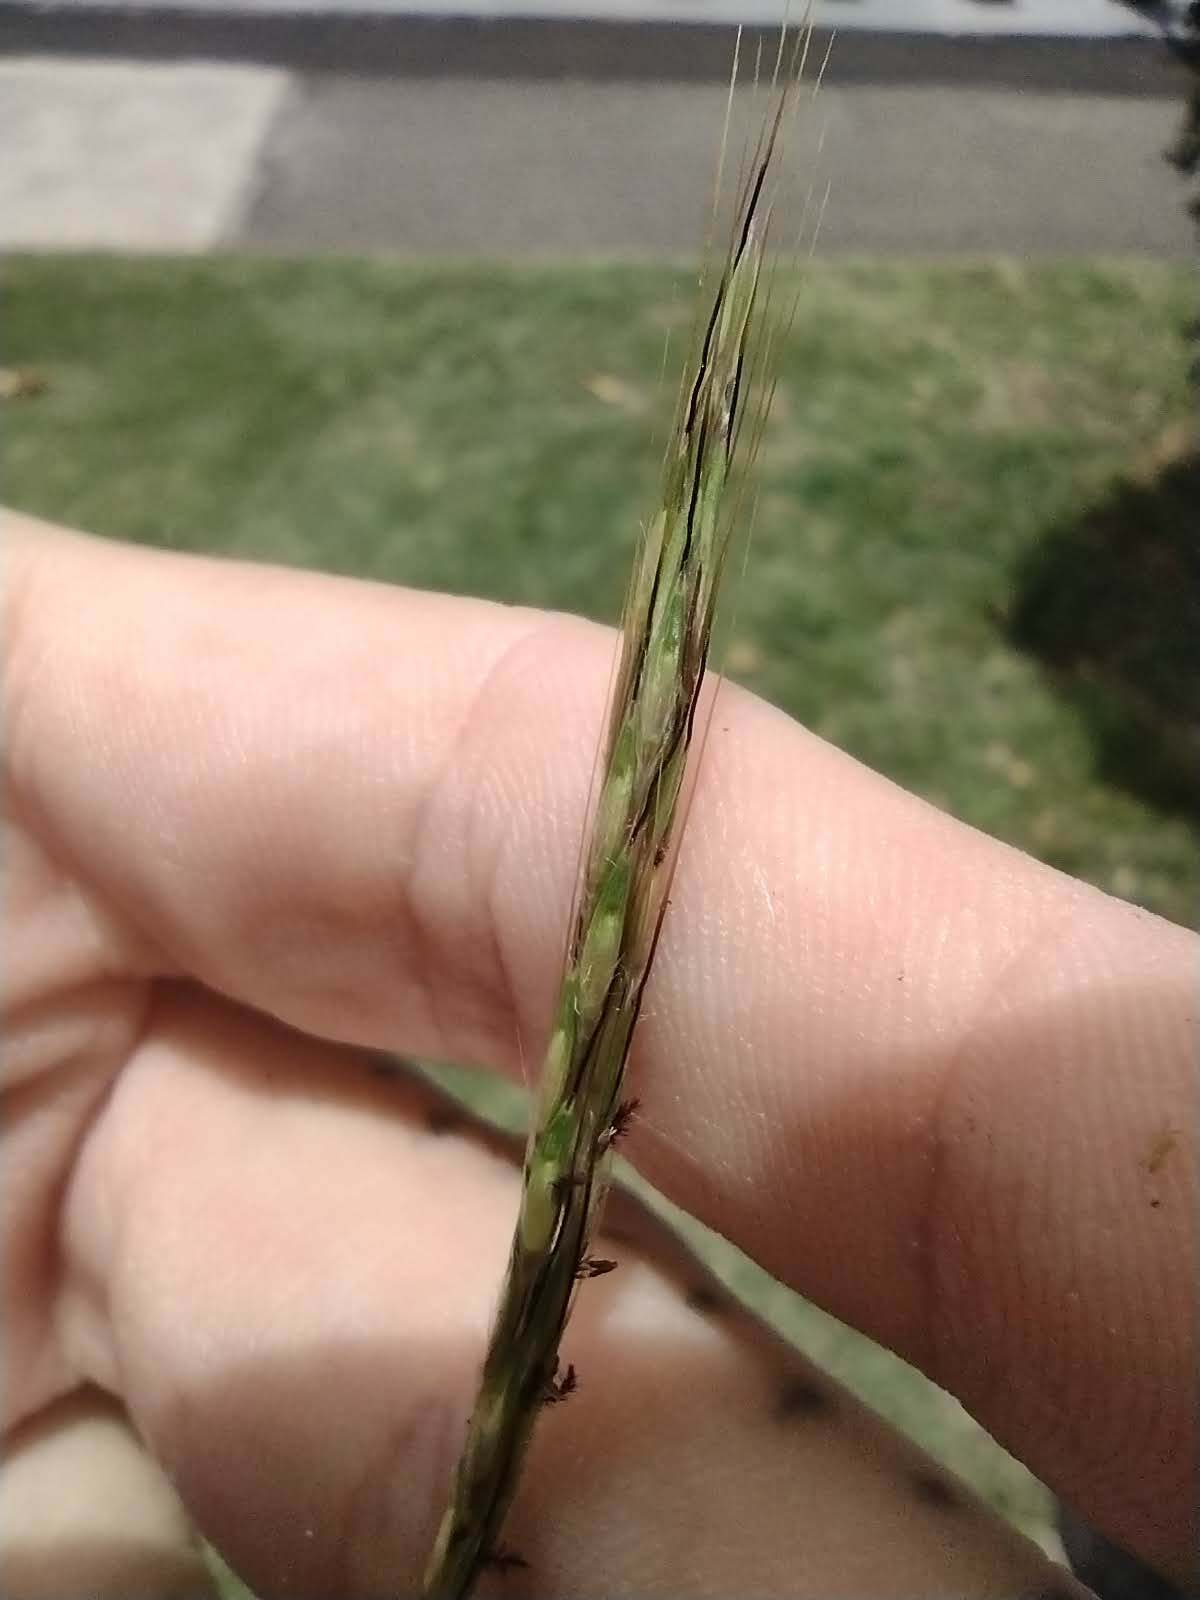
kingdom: Plantae
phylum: Tracheophyta
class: Liliopsida
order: Poales
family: Poaceae
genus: Bothriochloa
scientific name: Bothriochloa macra
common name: Pitted beard grass
